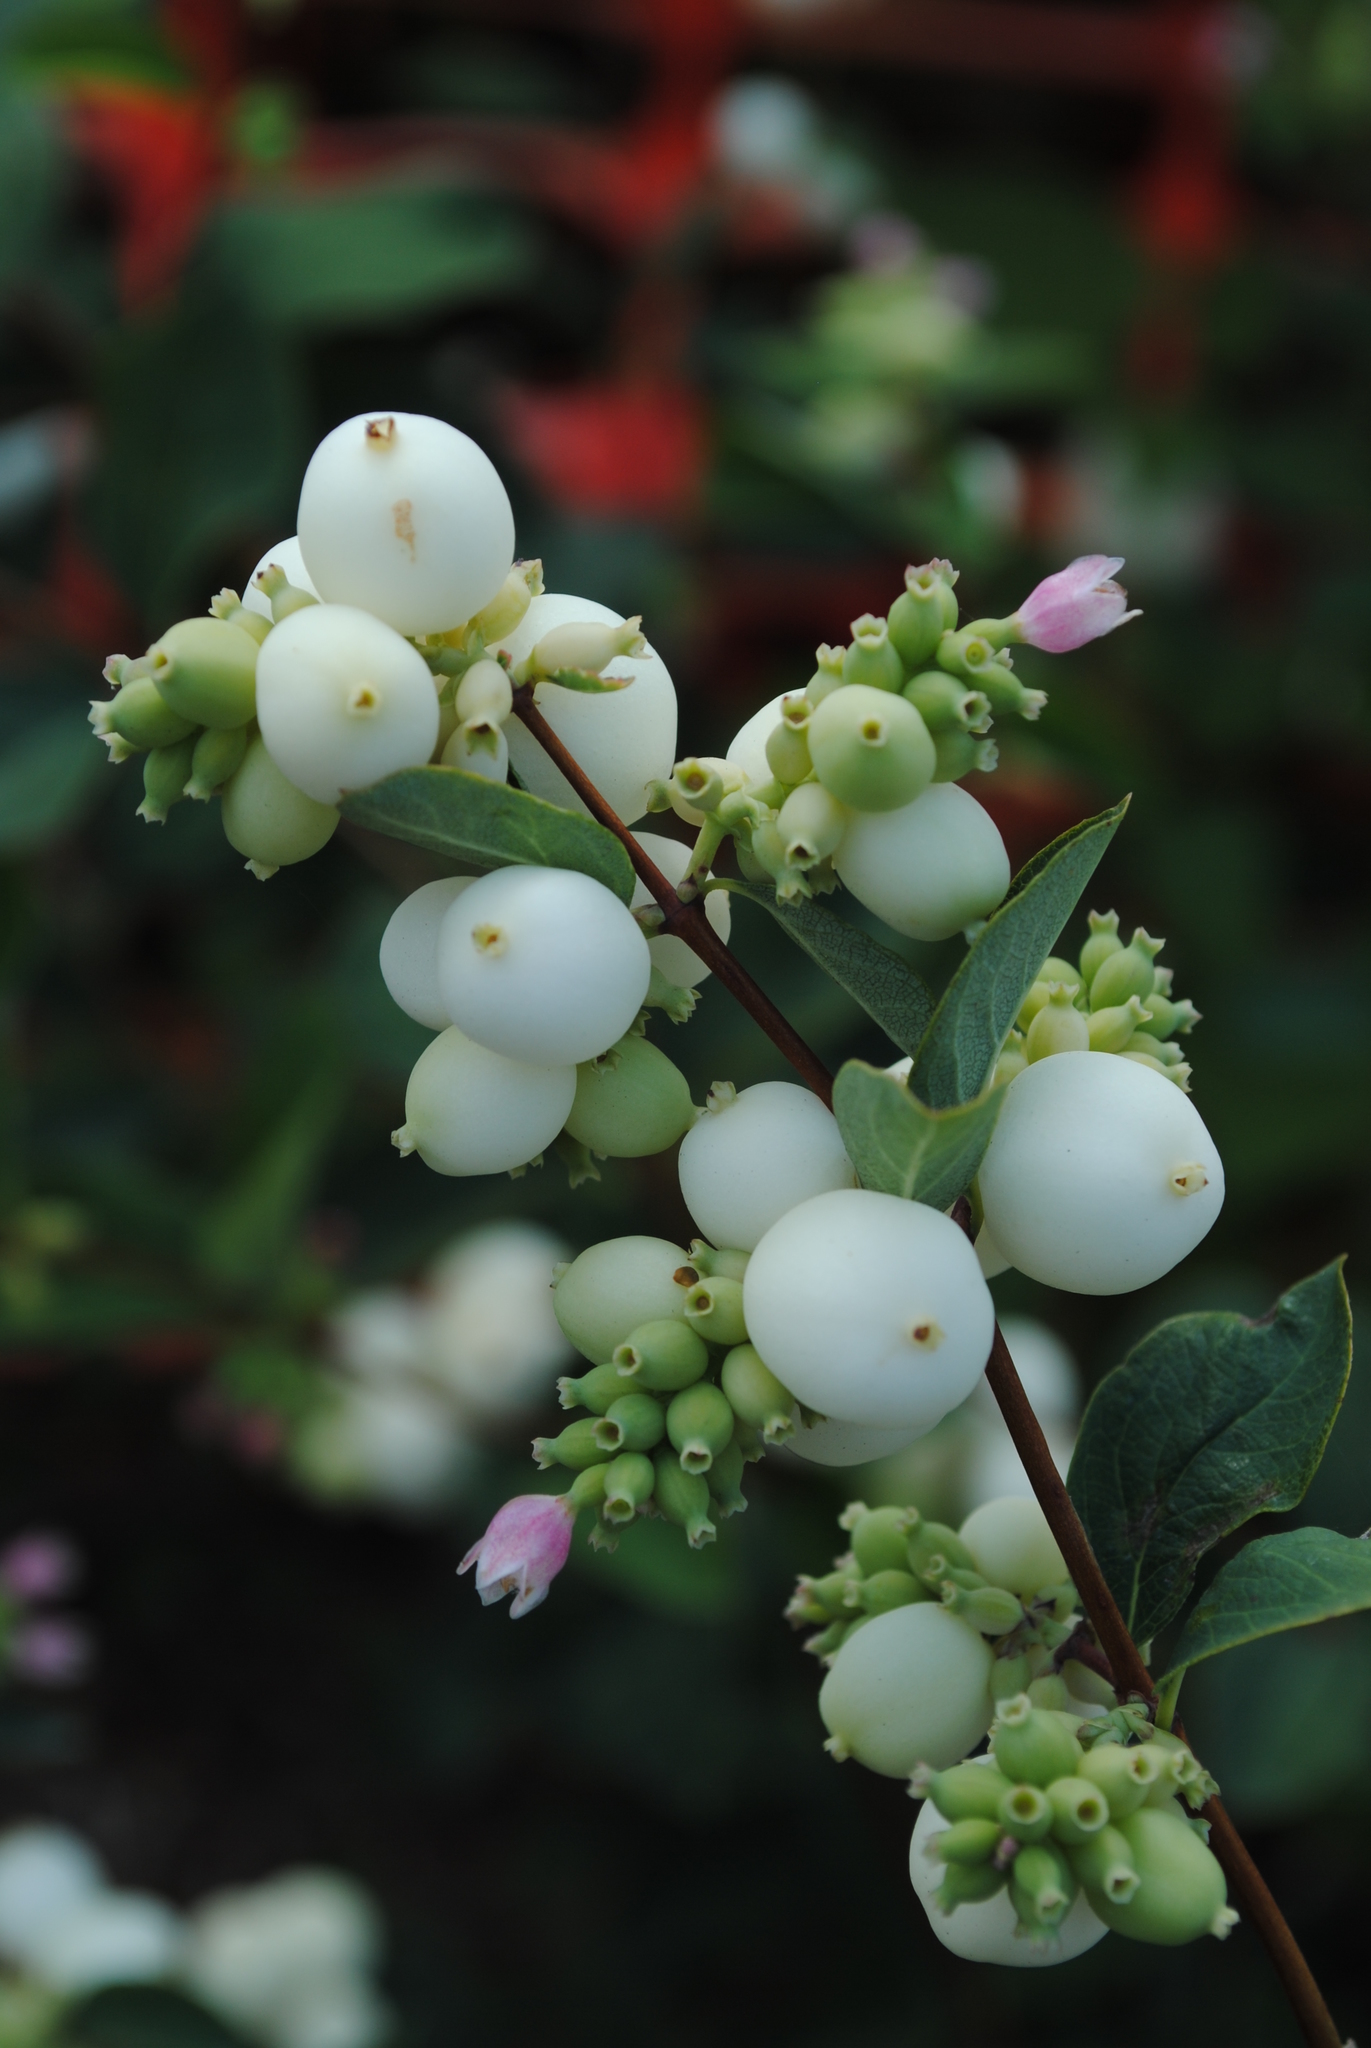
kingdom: Plantae
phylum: Tracheophyta
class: Magnoliopsida
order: Dipsacales
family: Caprifoliaceae
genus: Symphoricarpos
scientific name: Symphoricarpos albus
